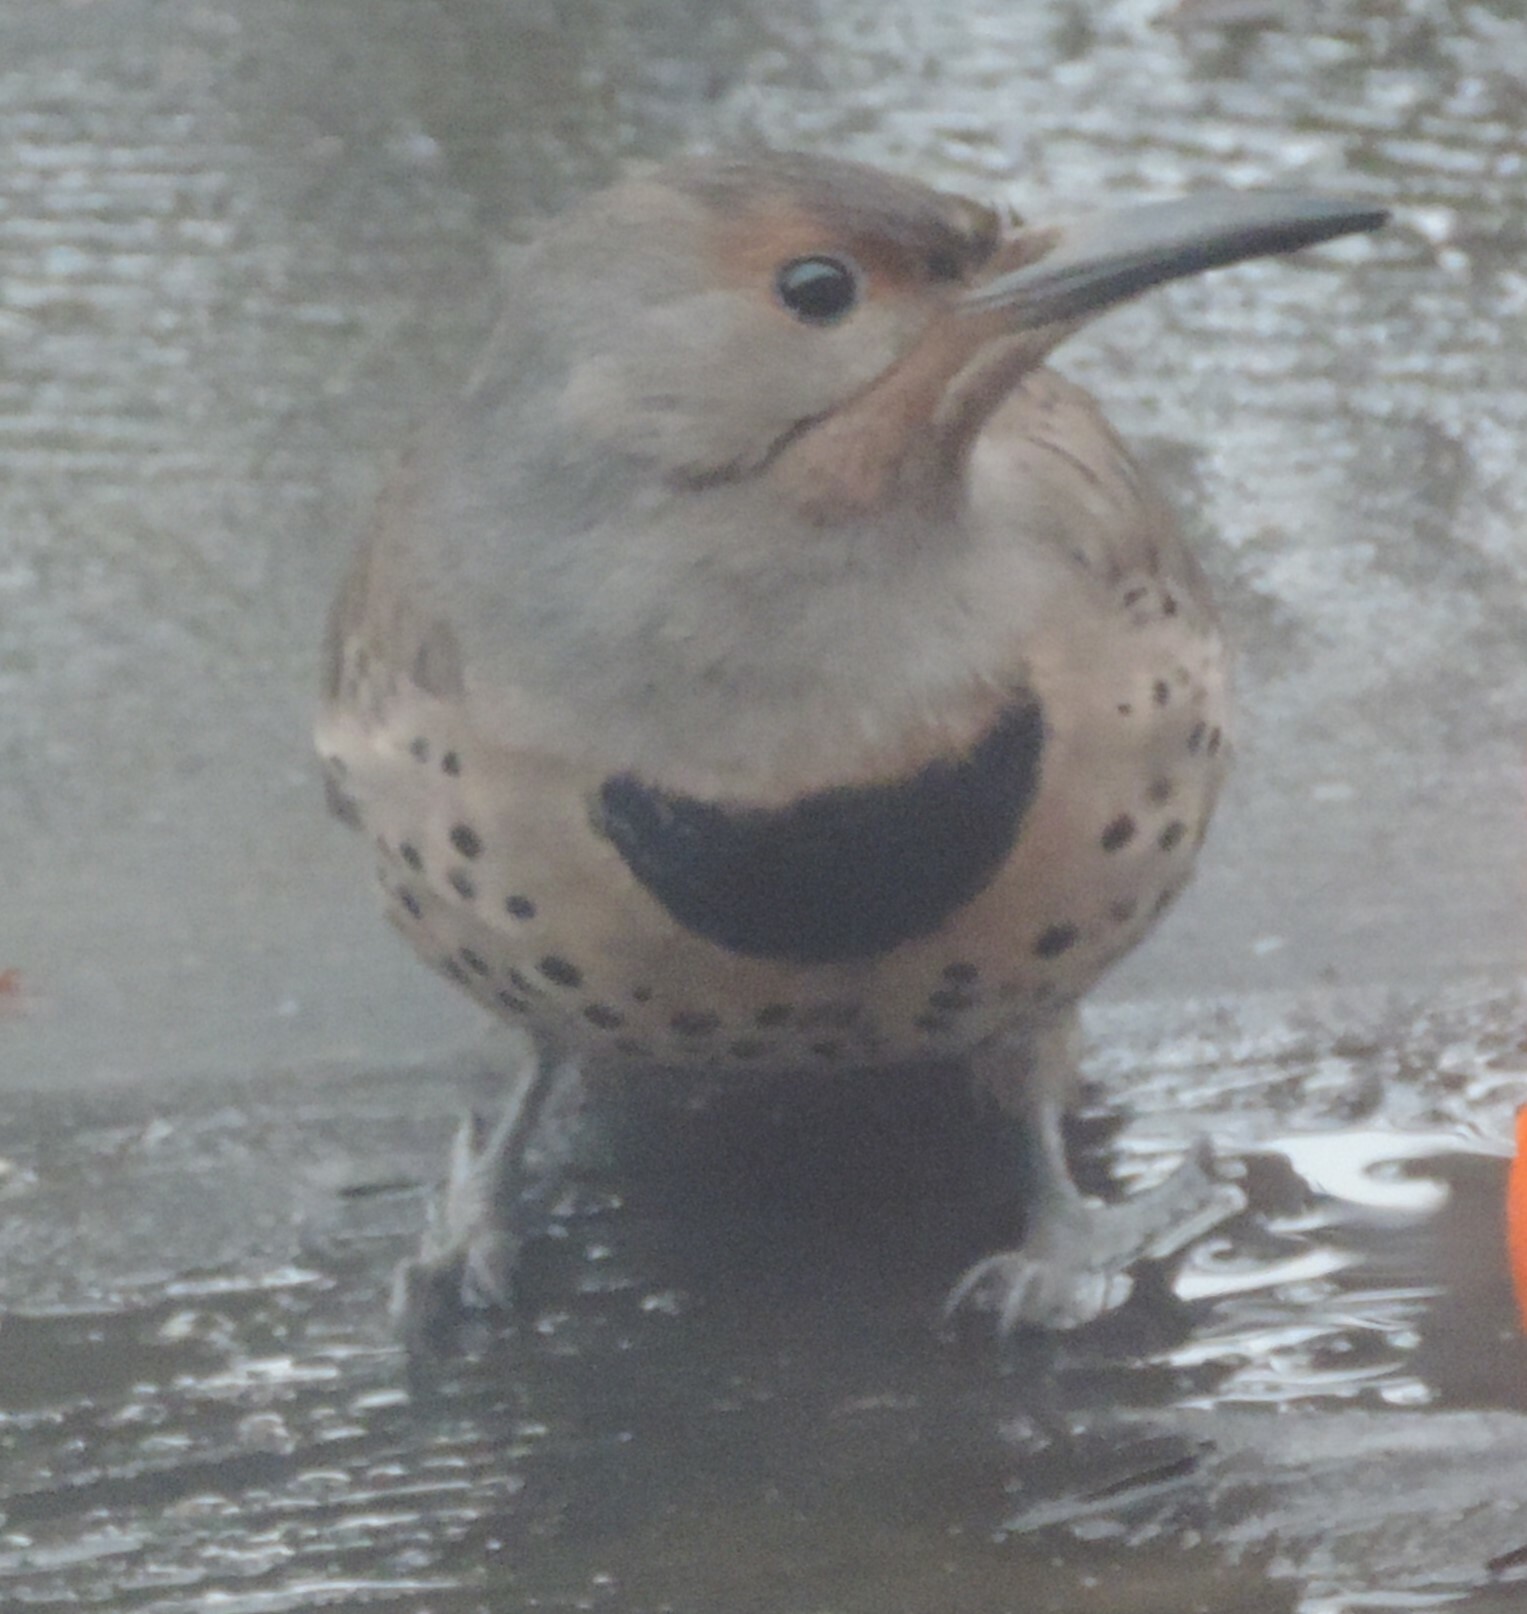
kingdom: Animalia
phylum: Chordata
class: Aves
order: Piciformes
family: Picidae
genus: Colaptes
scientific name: Colaptes auratus
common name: Northern flicker
